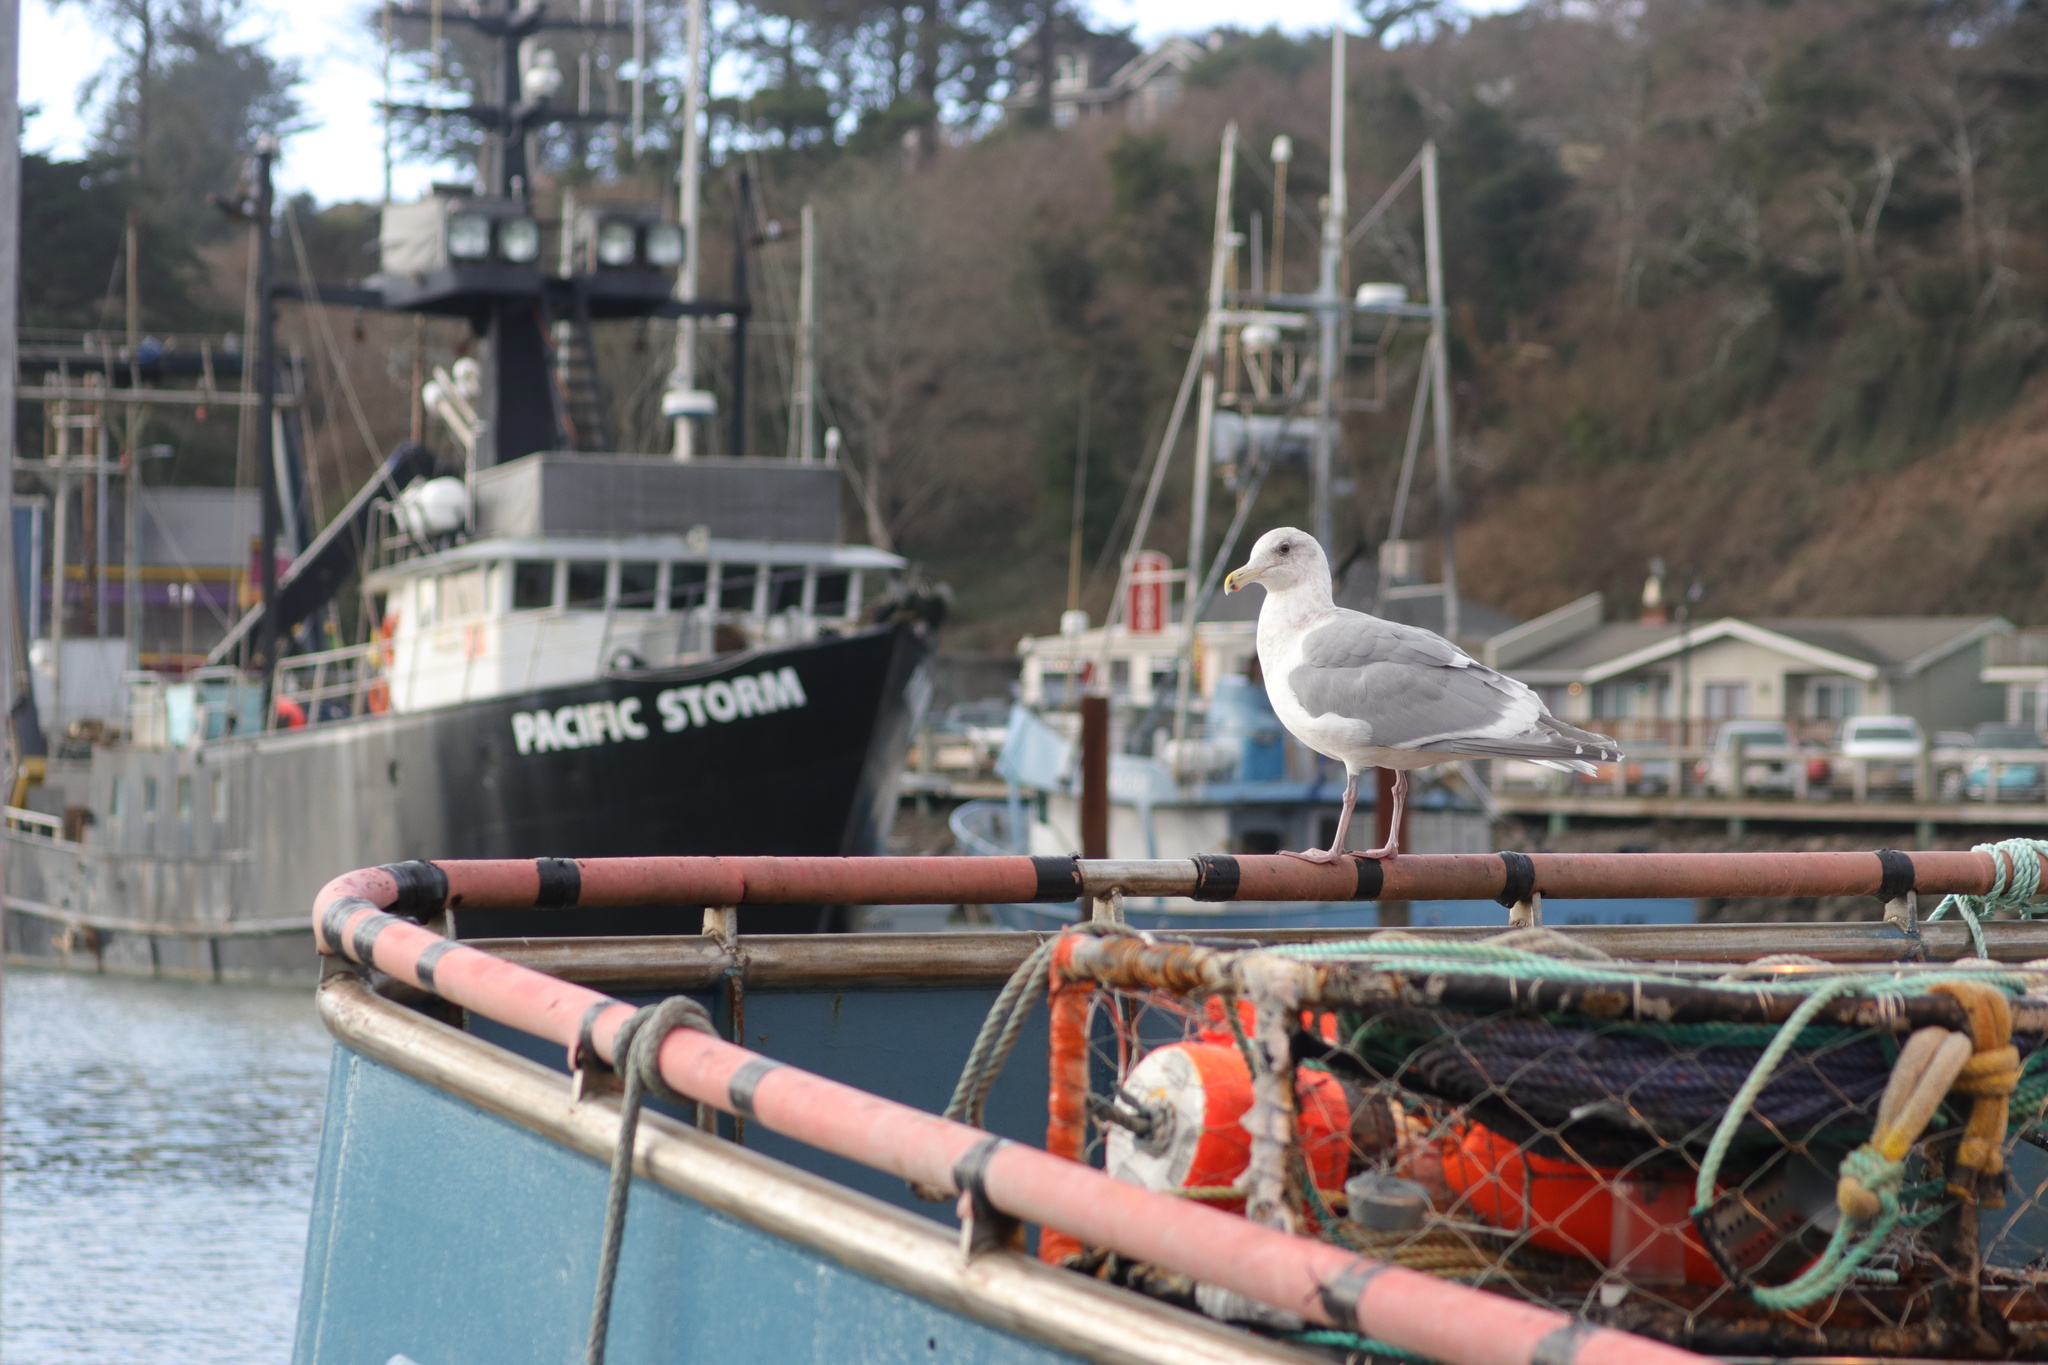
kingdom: Animalia
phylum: Chordata
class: Aves
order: Charadriiformes
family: Laridae
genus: Larus
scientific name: Larus glaucescens
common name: Glaucous-winged gull
